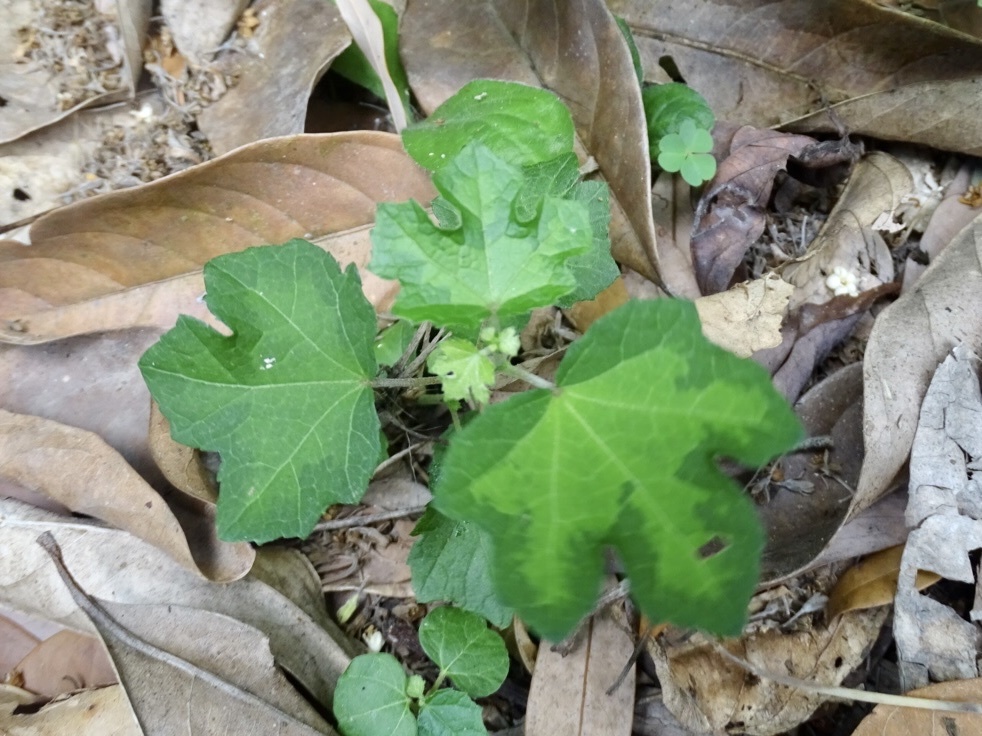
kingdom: Plantae
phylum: Tracheophyta
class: Magnoliopsida
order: Malvales
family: Malvaceae
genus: Urena
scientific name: Urena procumbens
